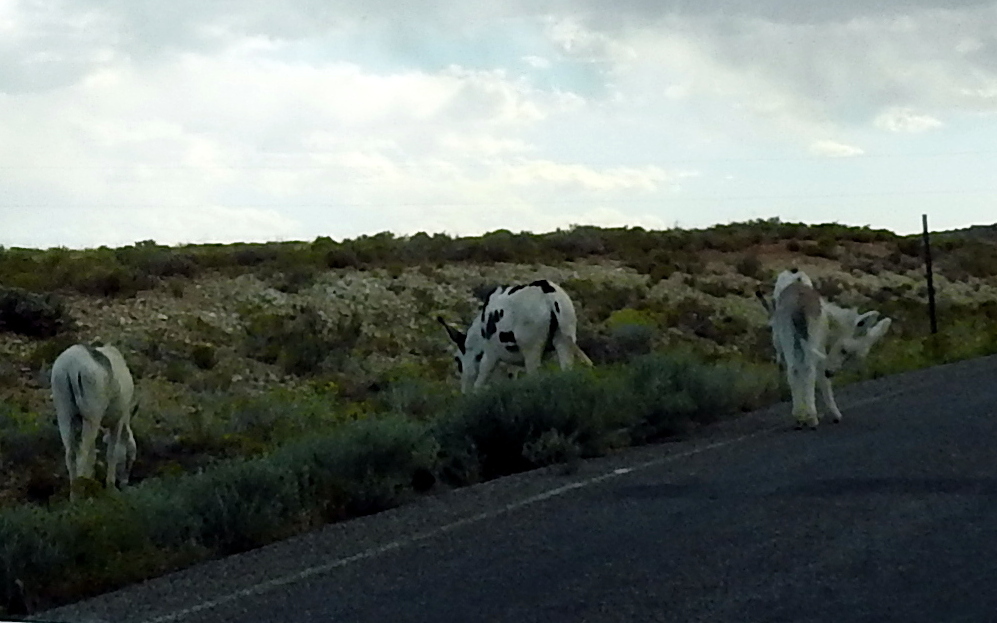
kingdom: Animalia
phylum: Chordata
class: Mammalia
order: Perissodactyla
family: Equidae
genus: Equus
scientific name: Equus asinus
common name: Ass
